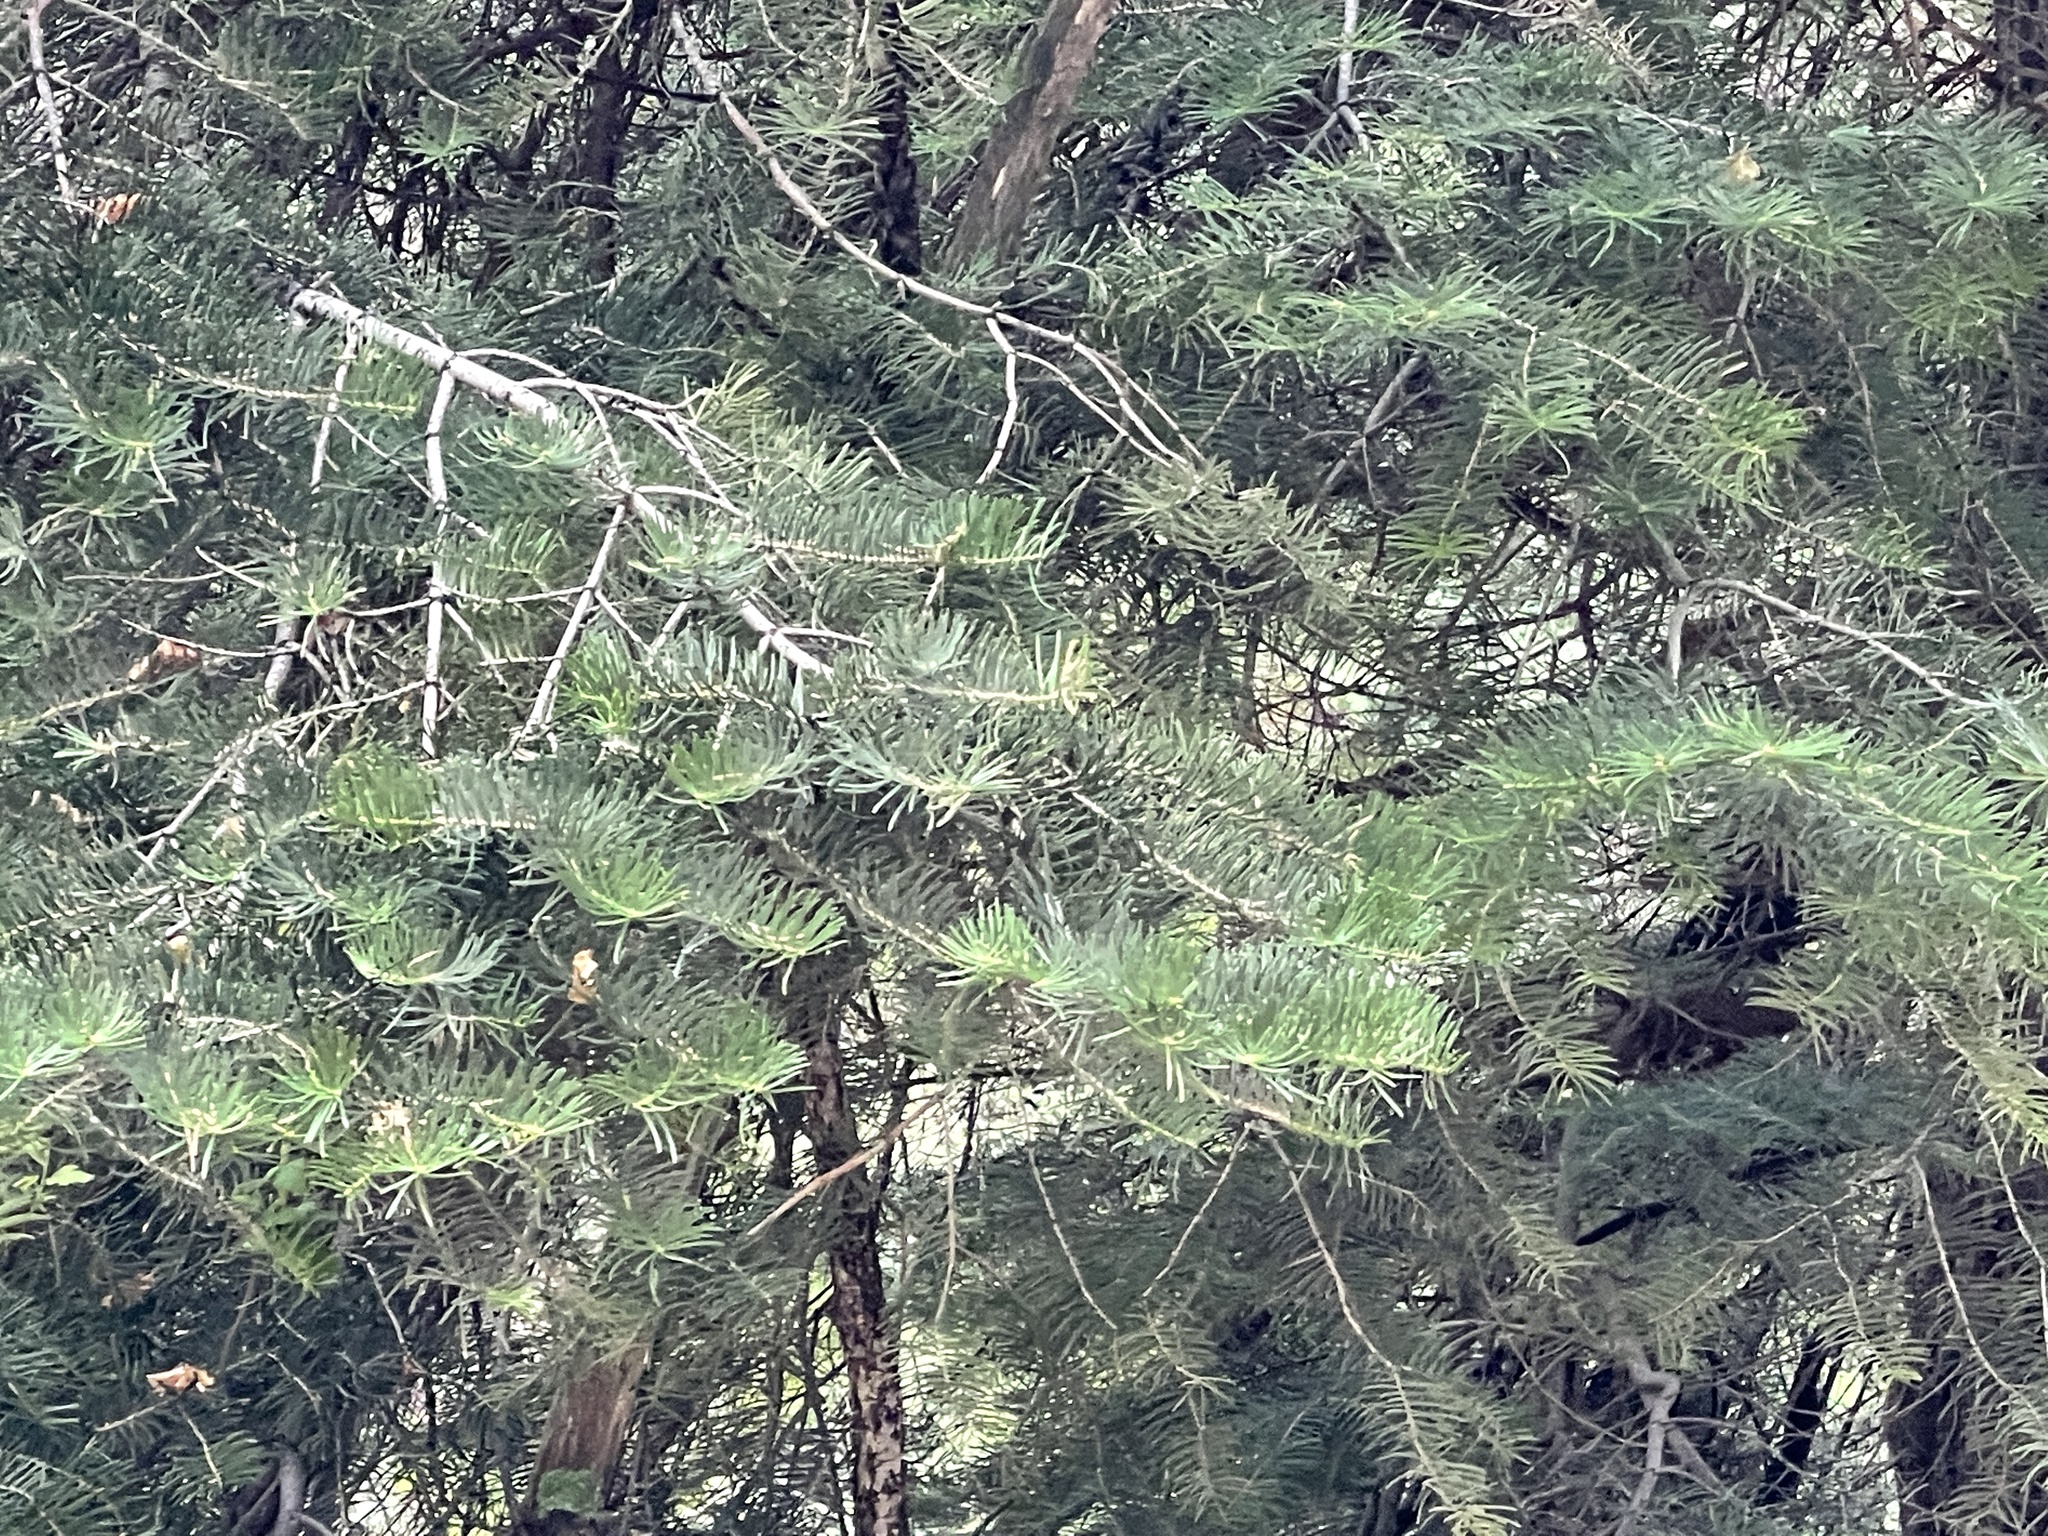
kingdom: Plantae
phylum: Tracheophyta
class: Pinopsida
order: Pinales
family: Pinaceae
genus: Abies
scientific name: Abies concolor
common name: Colorado fir
